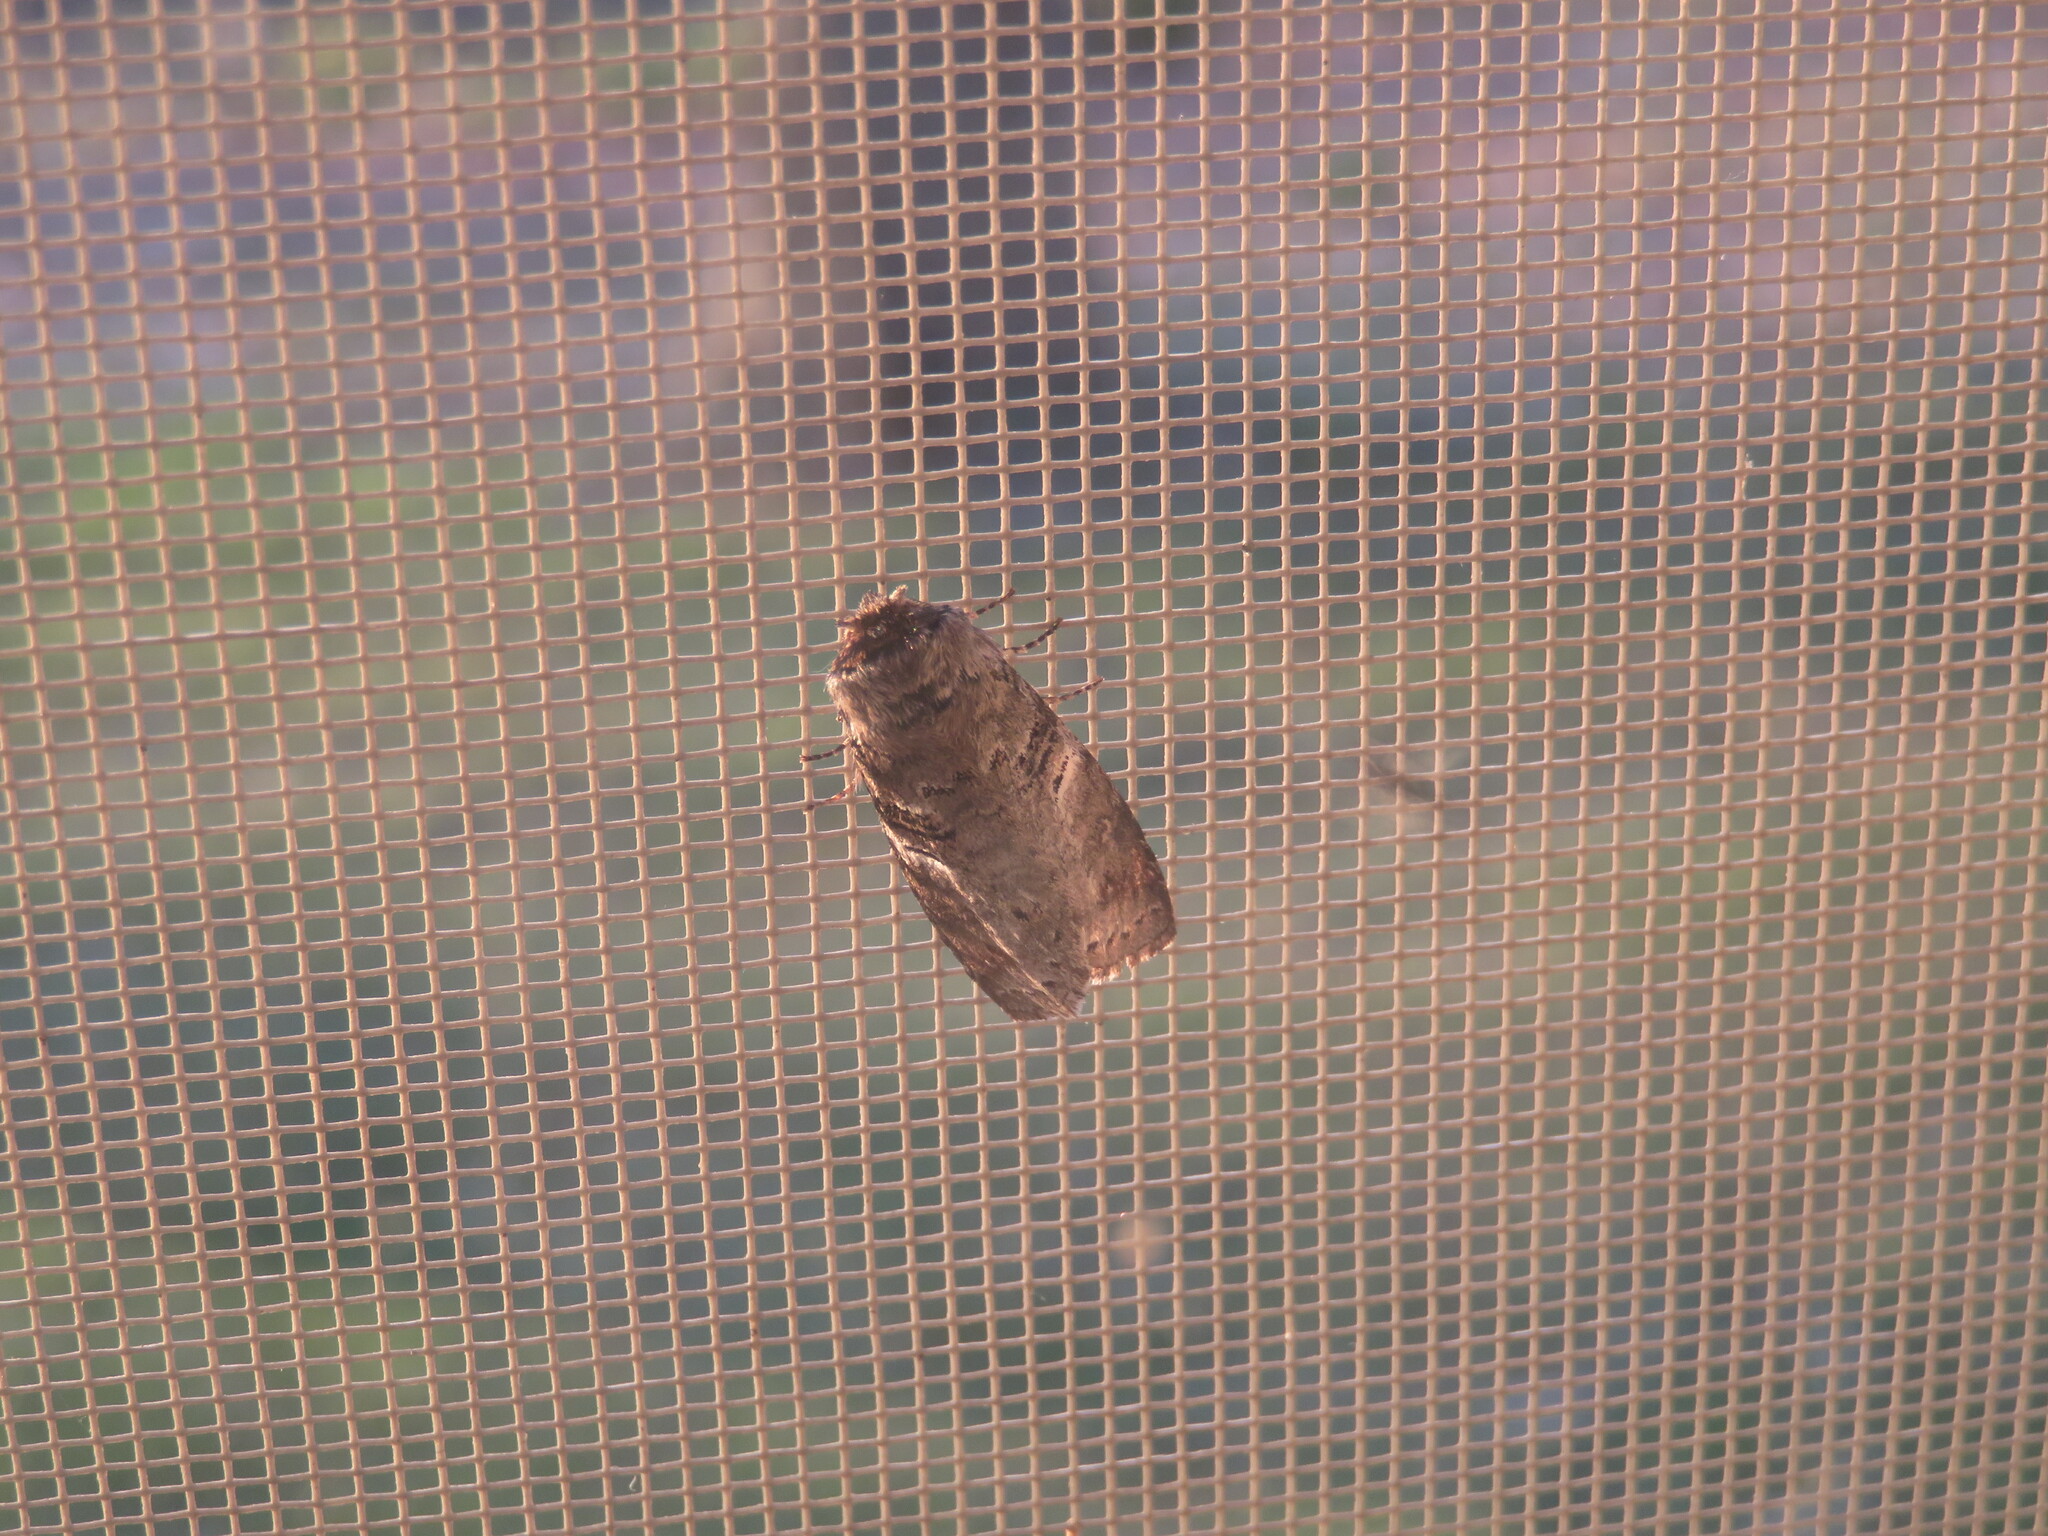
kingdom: Animalia
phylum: Arthropoda
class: Insecta
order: Lepidoptera
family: Notodontidae
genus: Ellida
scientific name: Ellida caniplaga
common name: Linden prominent
